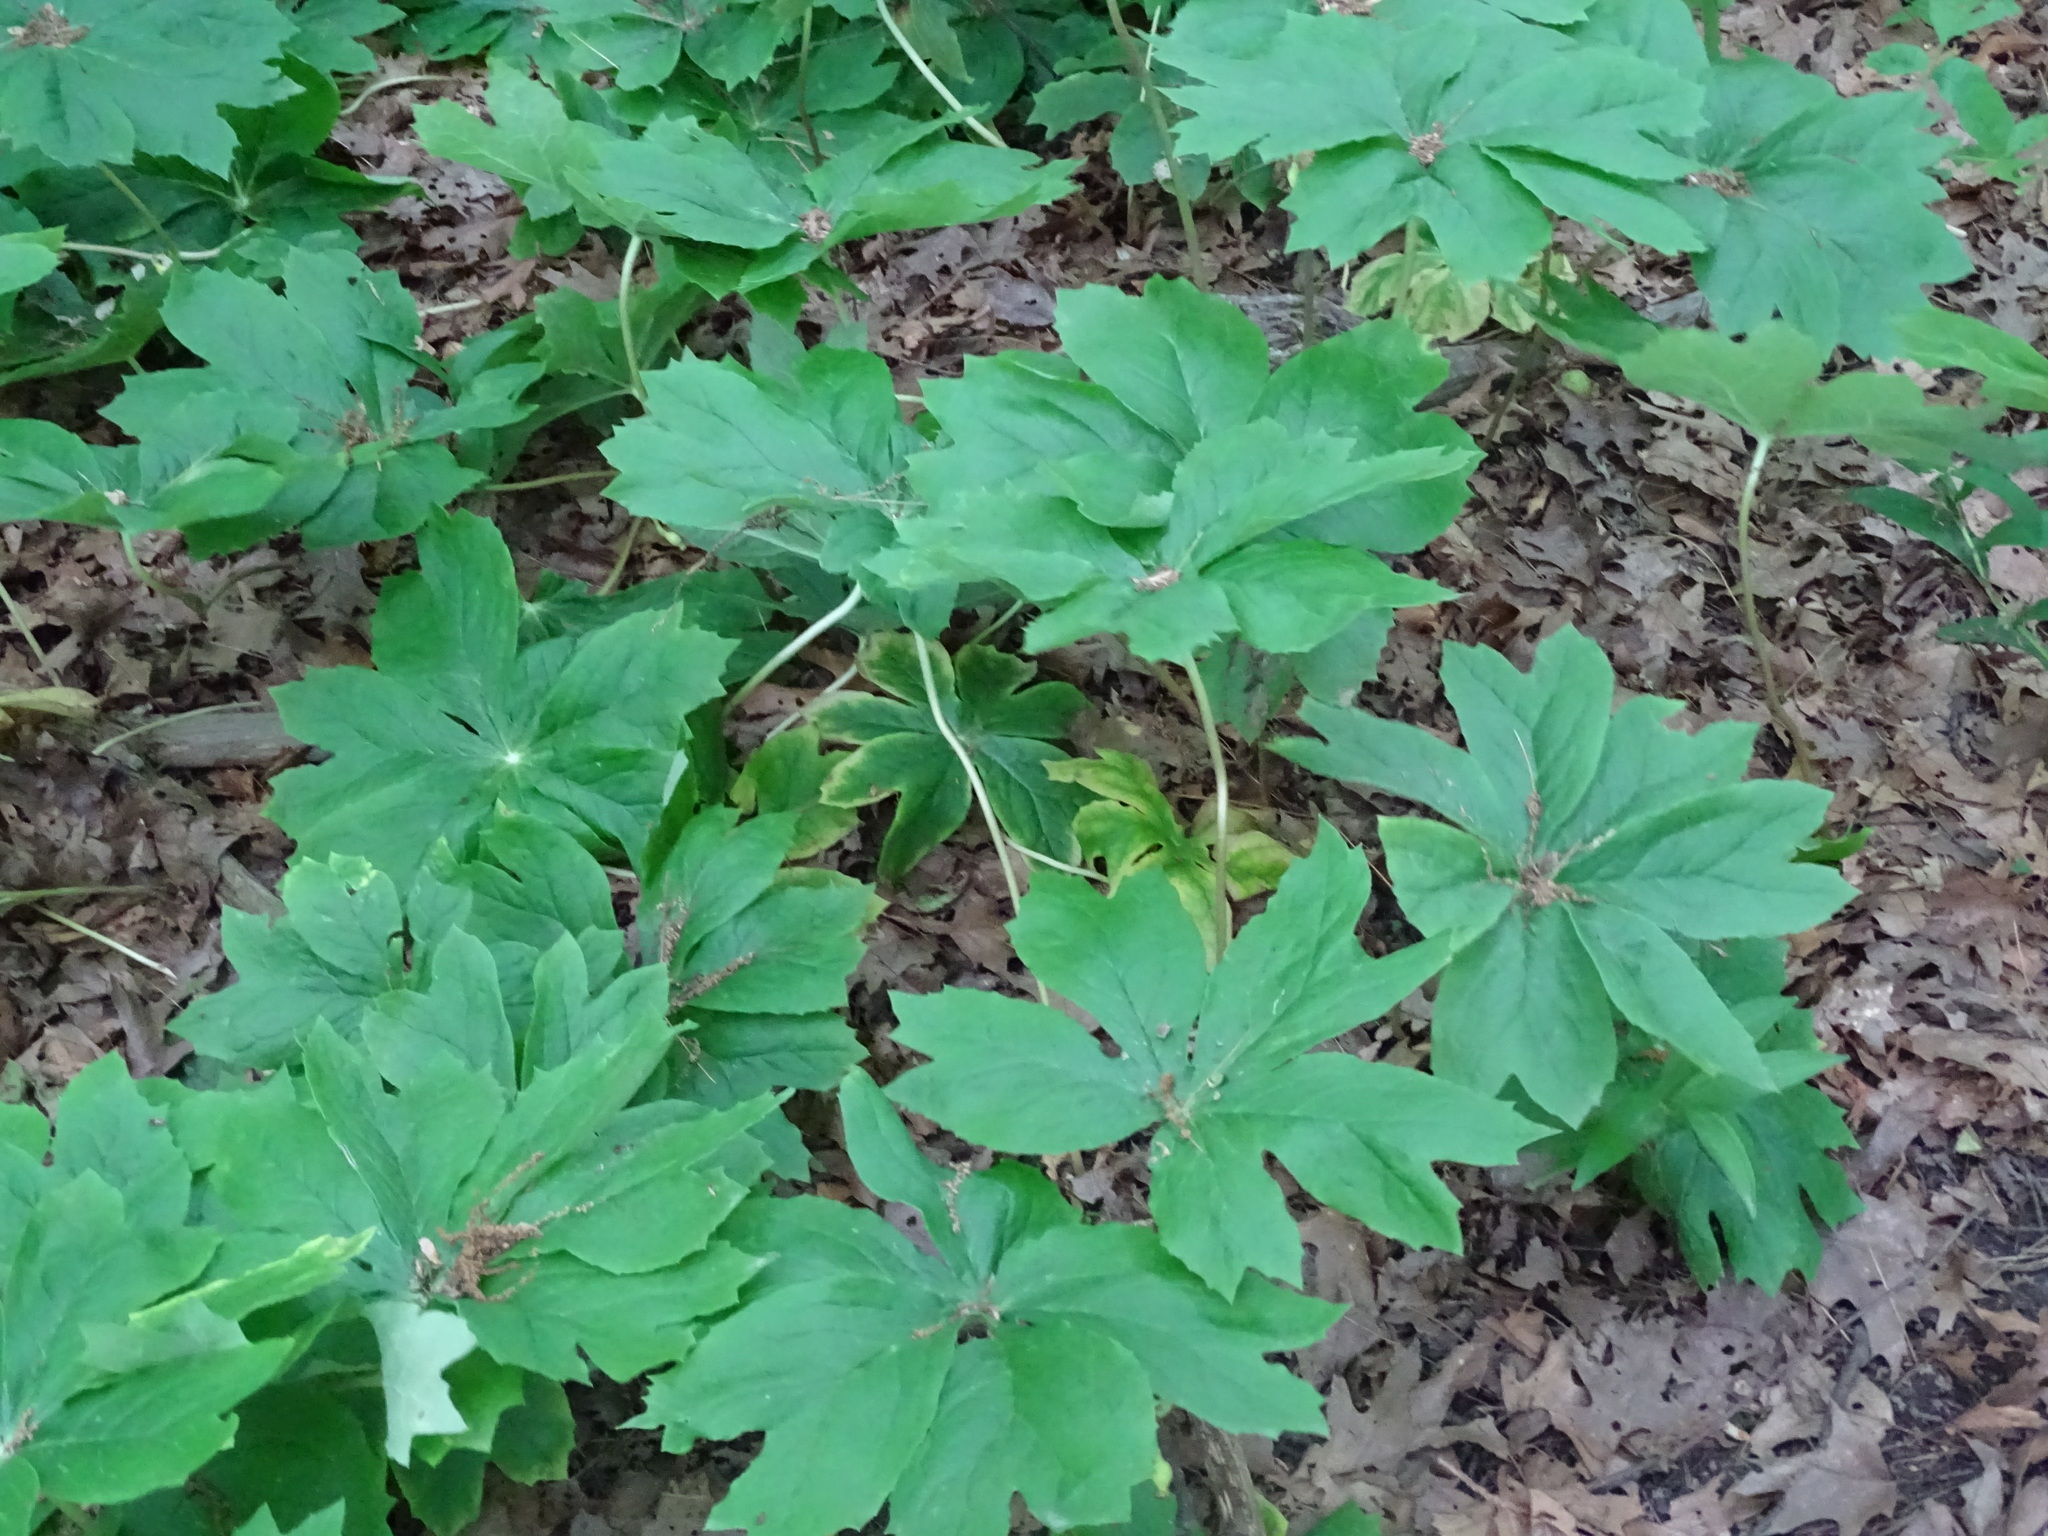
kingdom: Plantae
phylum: Tracheophyta
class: Magnoliopsida
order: Ranunculales
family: Berberidaceae
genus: Podophyllum
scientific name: Podophyllum peltatum
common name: Wild mandrake
